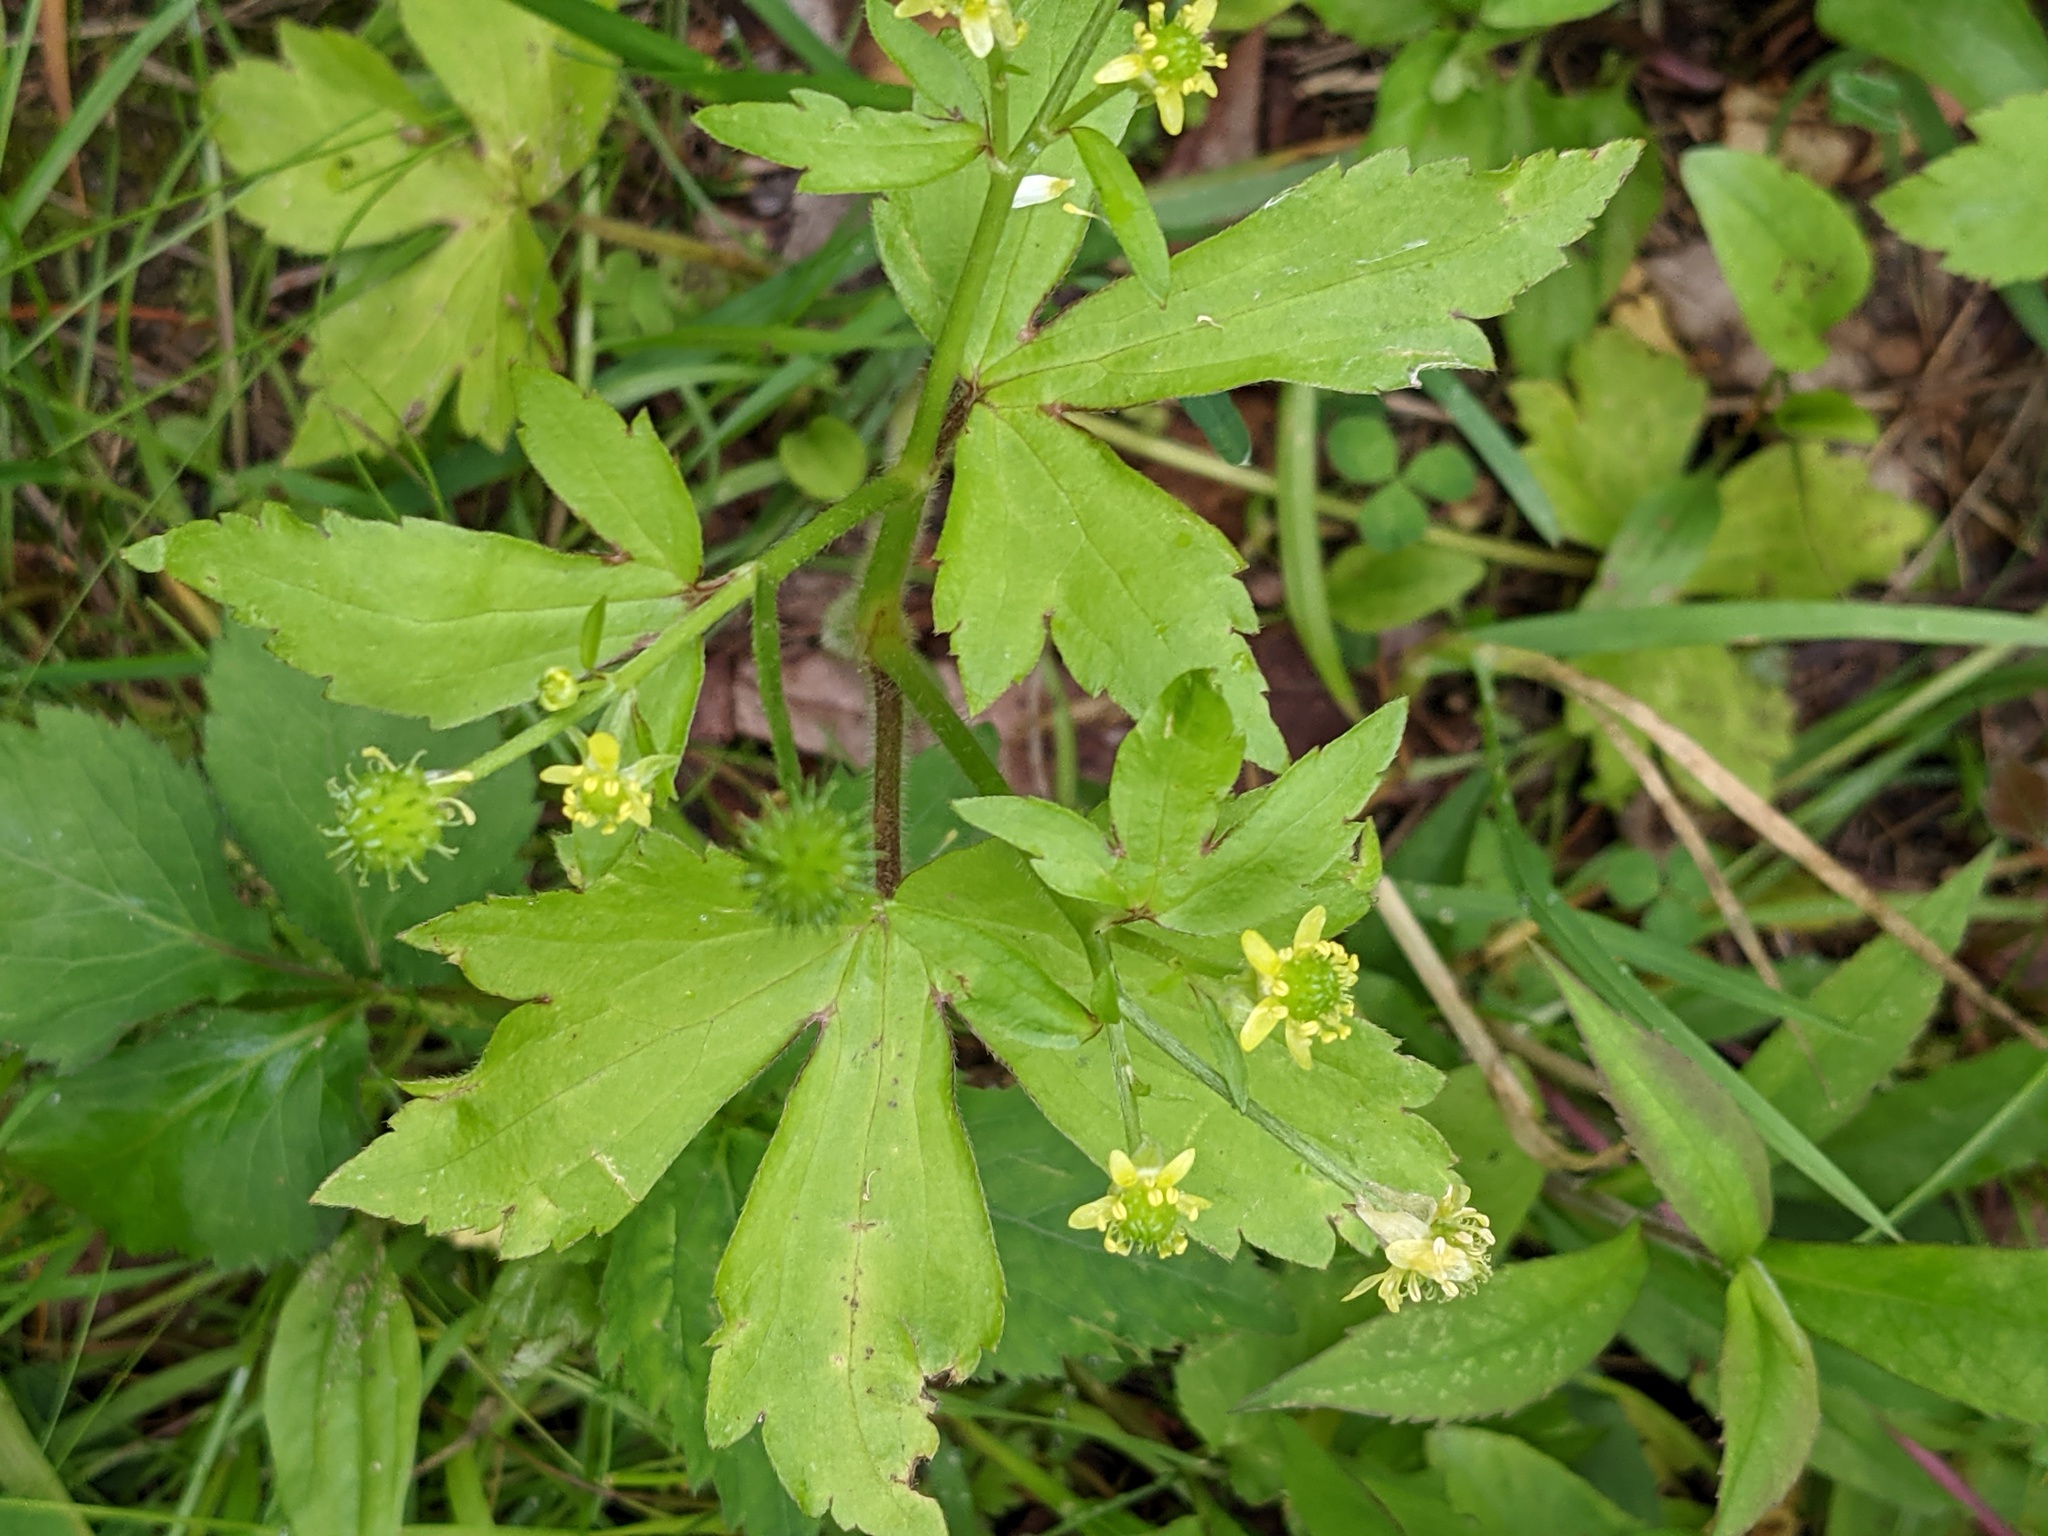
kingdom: Plantae
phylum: Tracheophyta
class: Magnoliopsida
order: Ranunculales
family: Ranunculaceae
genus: Ranunculus
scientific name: Ranunculus recurvatus
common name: Blisterwort
